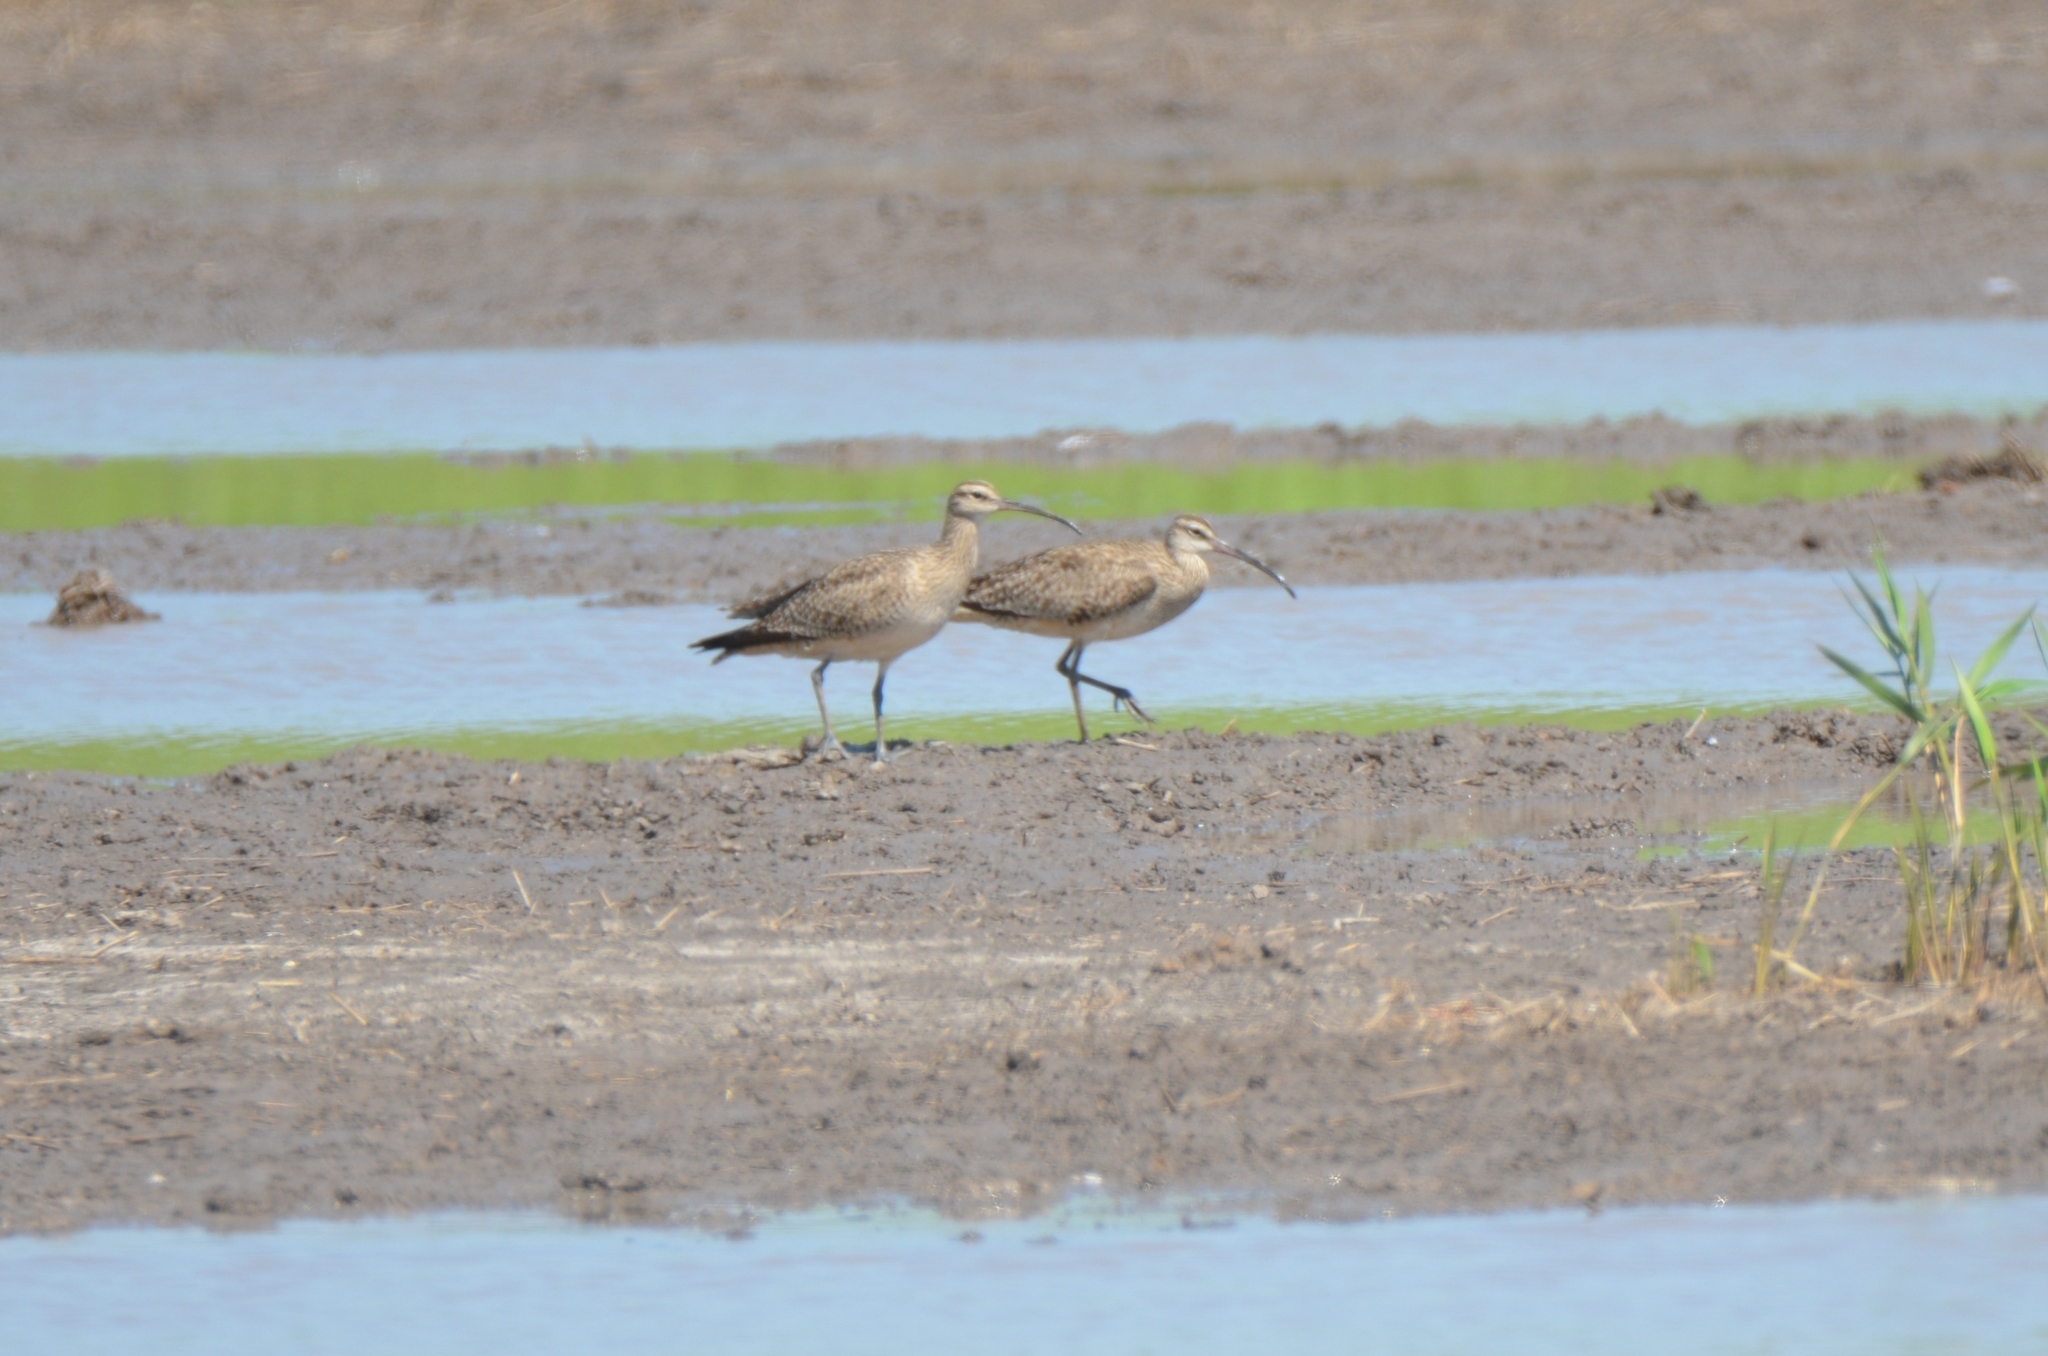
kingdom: Animalia
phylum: Chordata
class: Aves
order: Charadriiformes
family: Scolopacidae
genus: Numenius
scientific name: Numenius phaeopus
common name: Whimbrel
